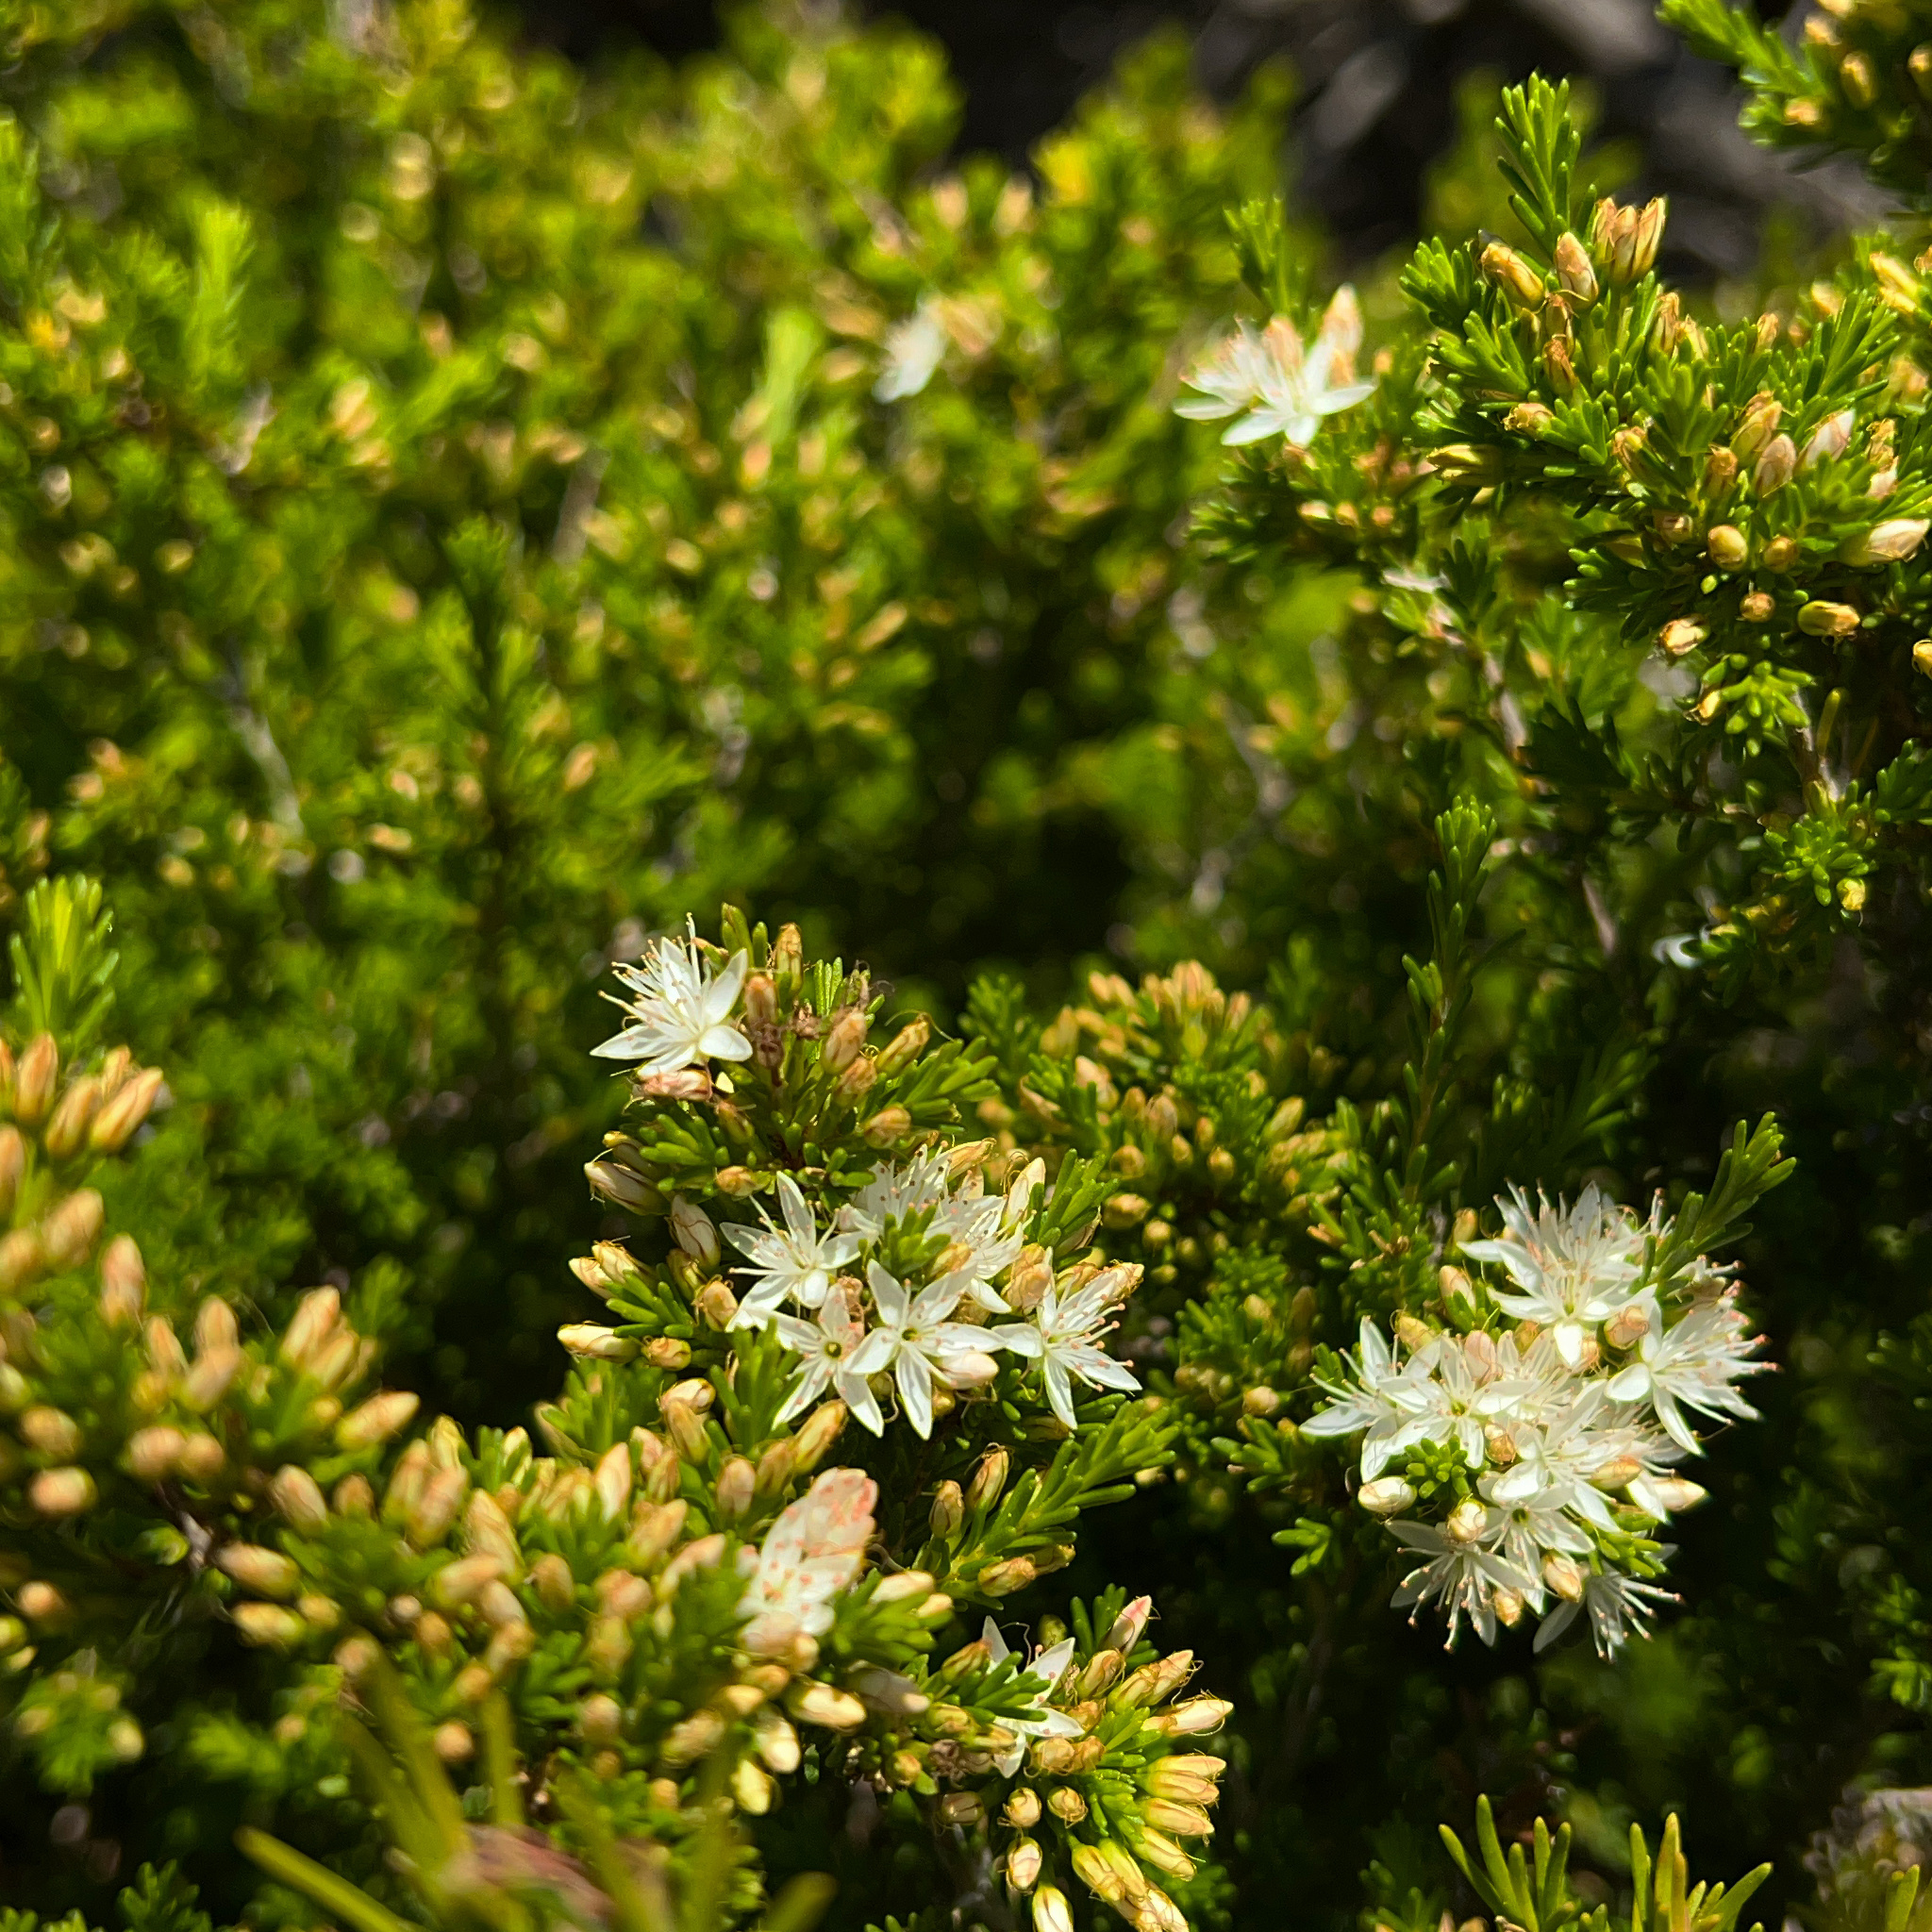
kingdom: Plantae
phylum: Tracheophyta
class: Magnoliopsida
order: Myrtales
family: Myrtaceae
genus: Calytrix
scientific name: Calytrix tetragona
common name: Common fringe myrtle
